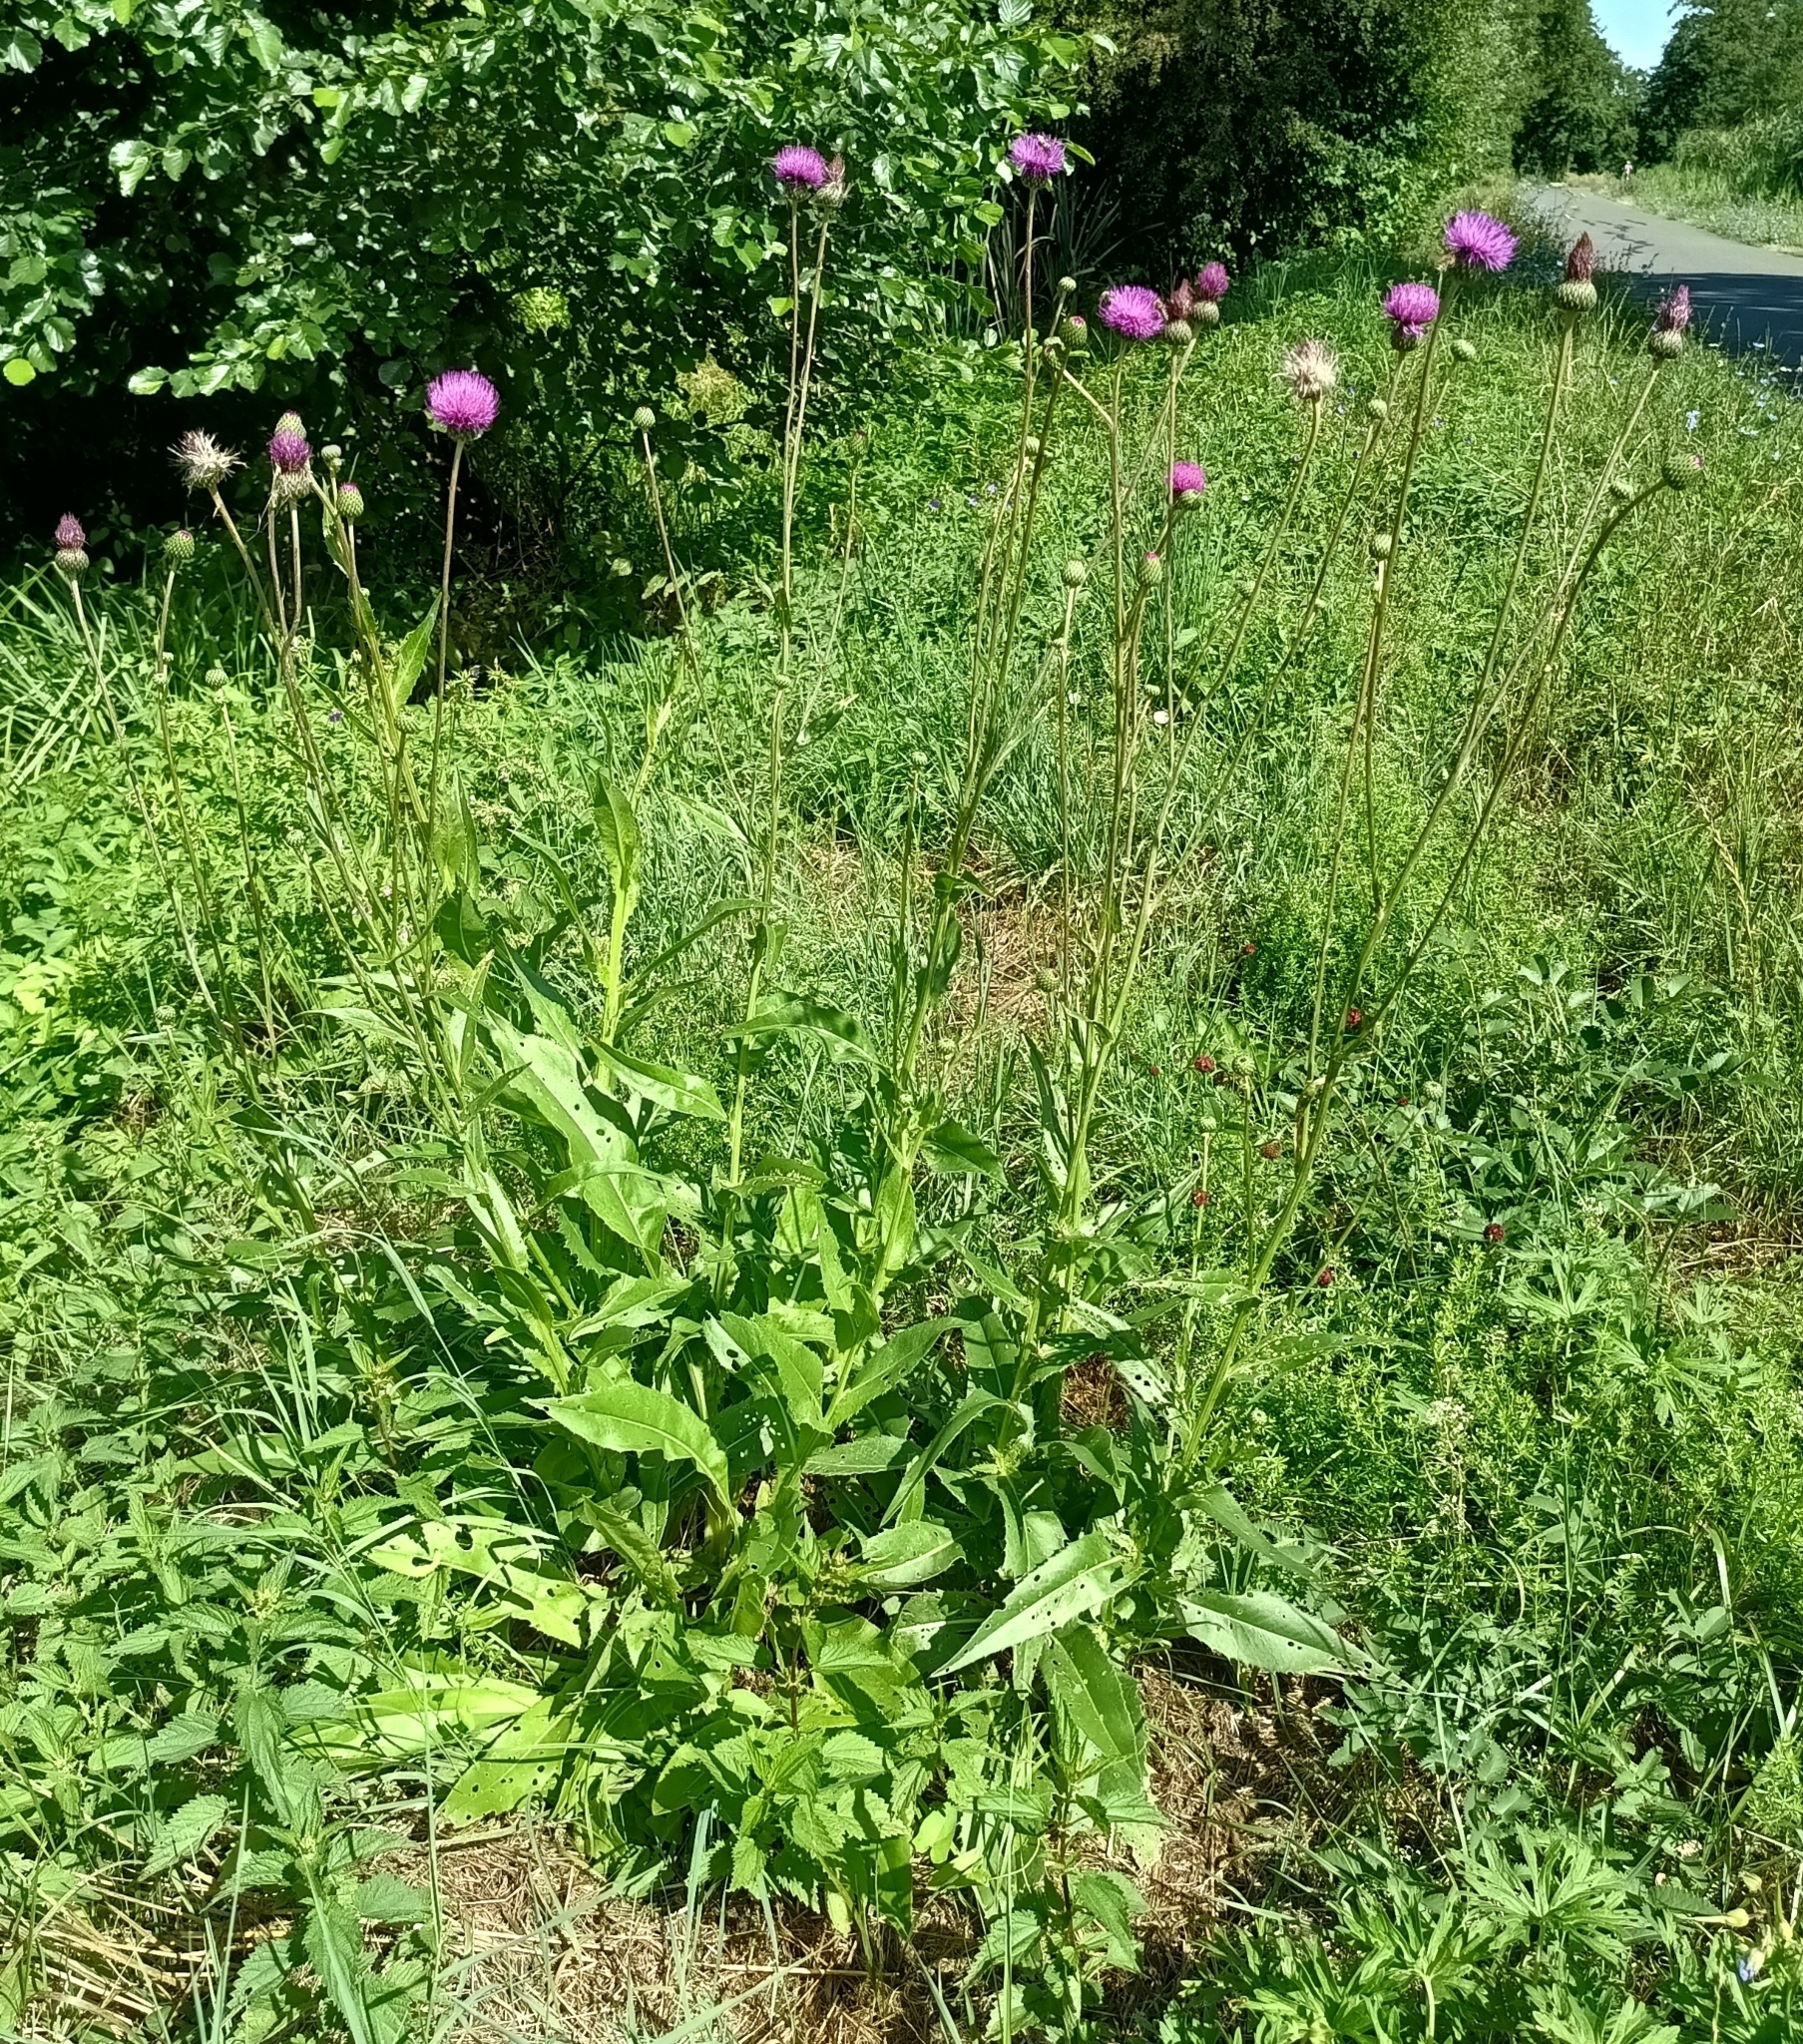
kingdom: Plantae
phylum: Tracheophyta
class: Magnoliopsida
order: Asterales
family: Asteraceae
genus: Cirsium
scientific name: Cirsium canum
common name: Queen anne's thistle
